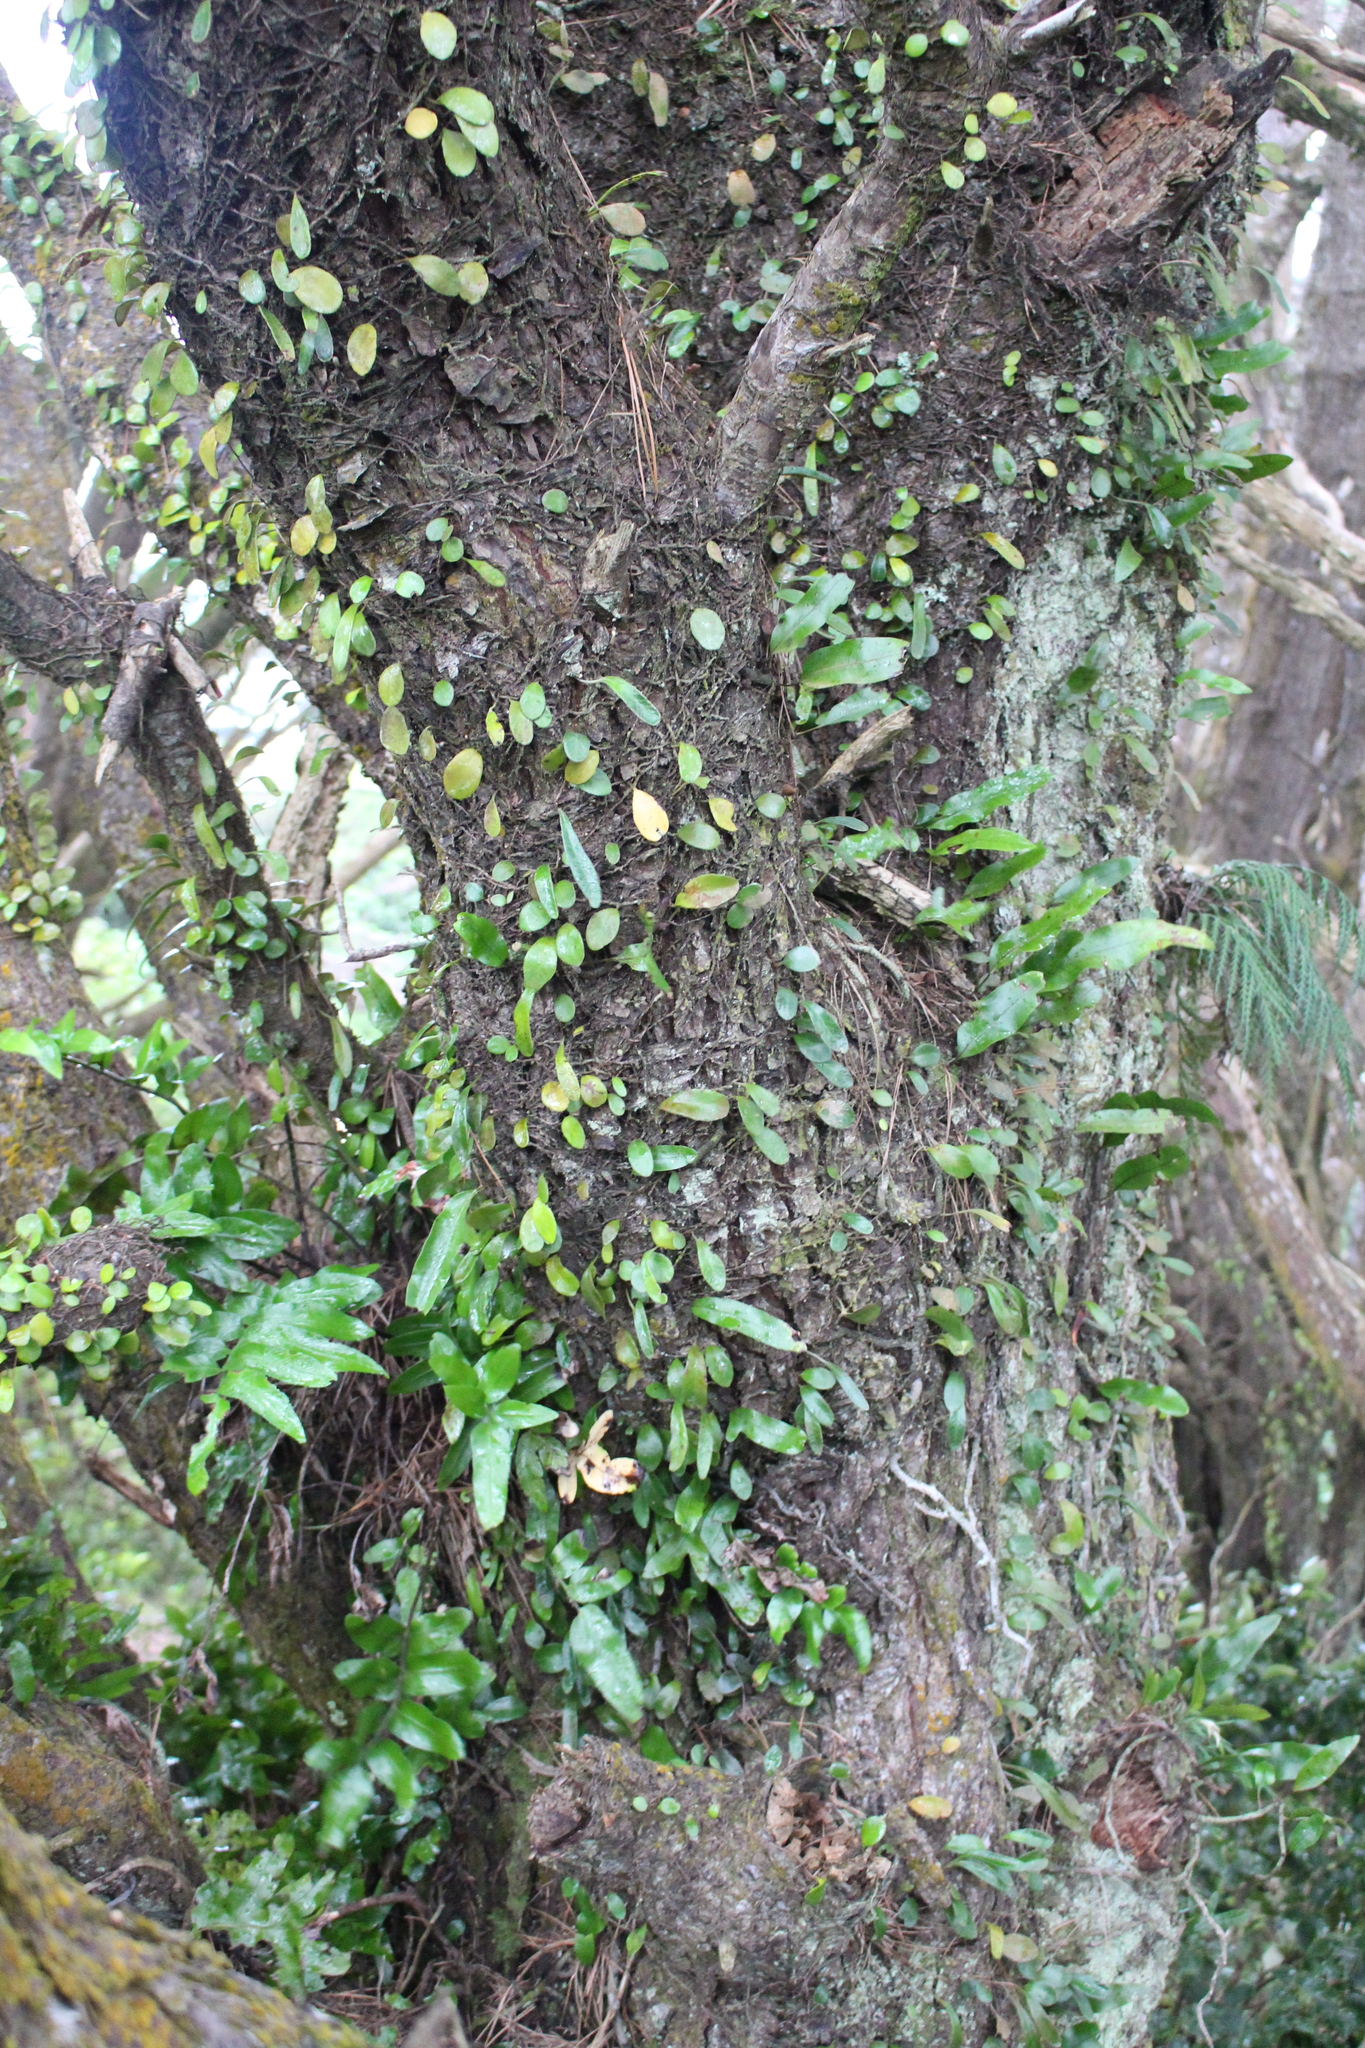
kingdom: Plantae
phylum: Tracheophyta
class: Polypodiopsida
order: Polypodiales
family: Polypodiaceae
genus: Pyrrosia
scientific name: Pyrrosia eleagnifolia
